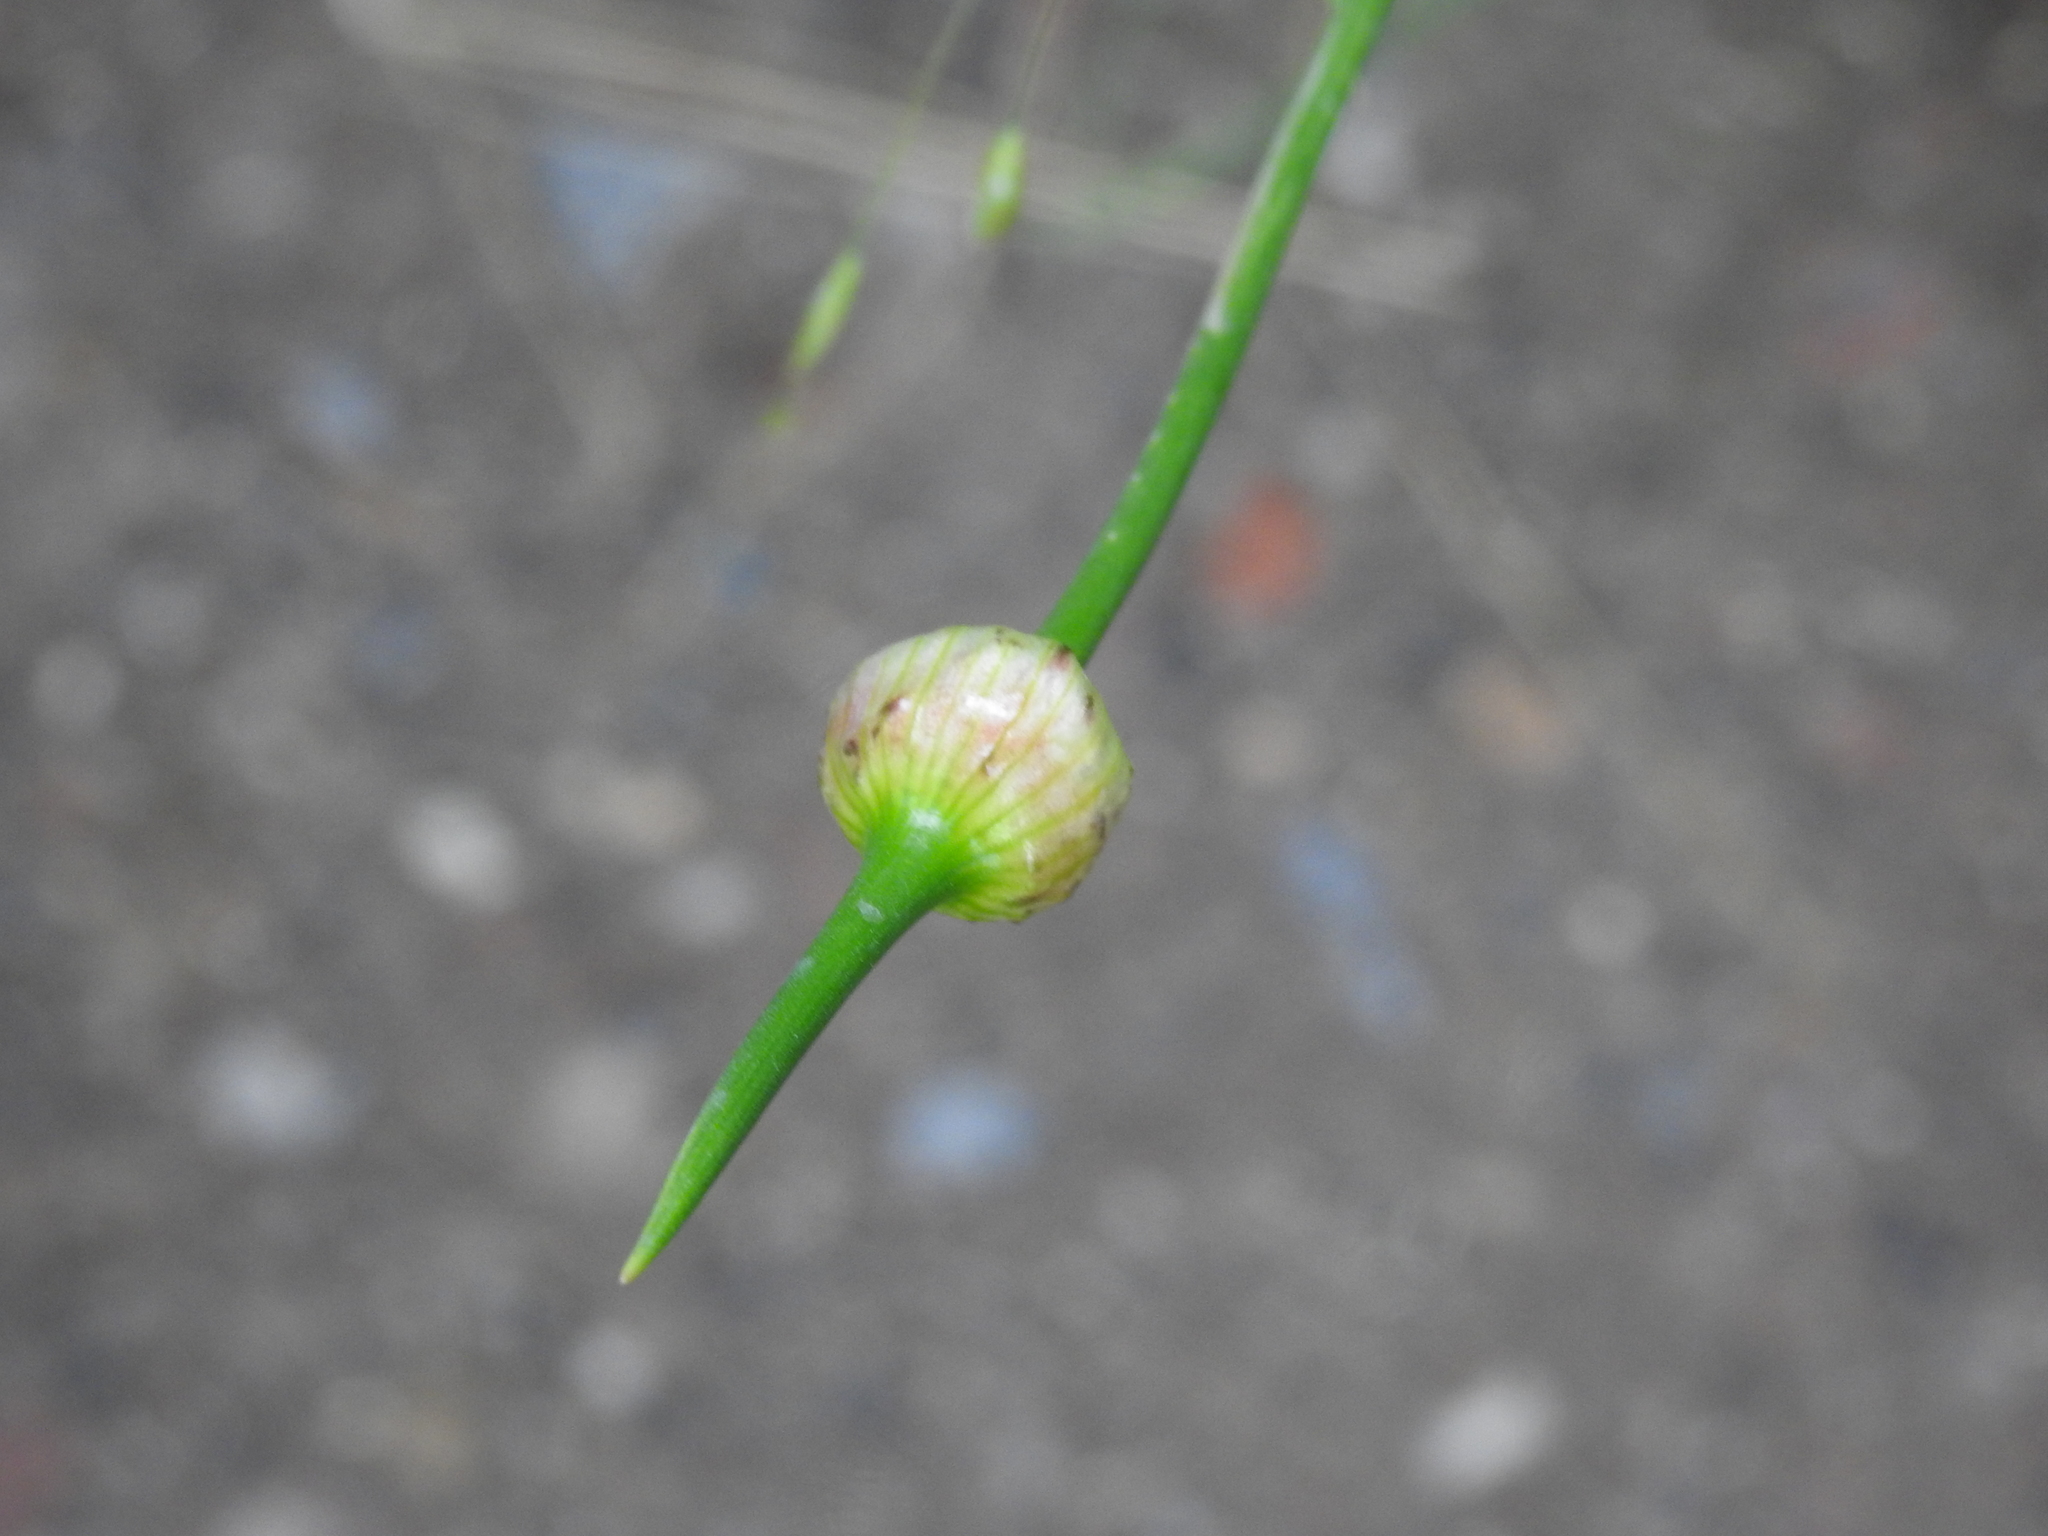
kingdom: Plantae
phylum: Tracheophyta
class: Liliopsida
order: Asparagales
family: Amaryllidaceae
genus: Allium
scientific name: Allium vineale
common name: Crow garlic
